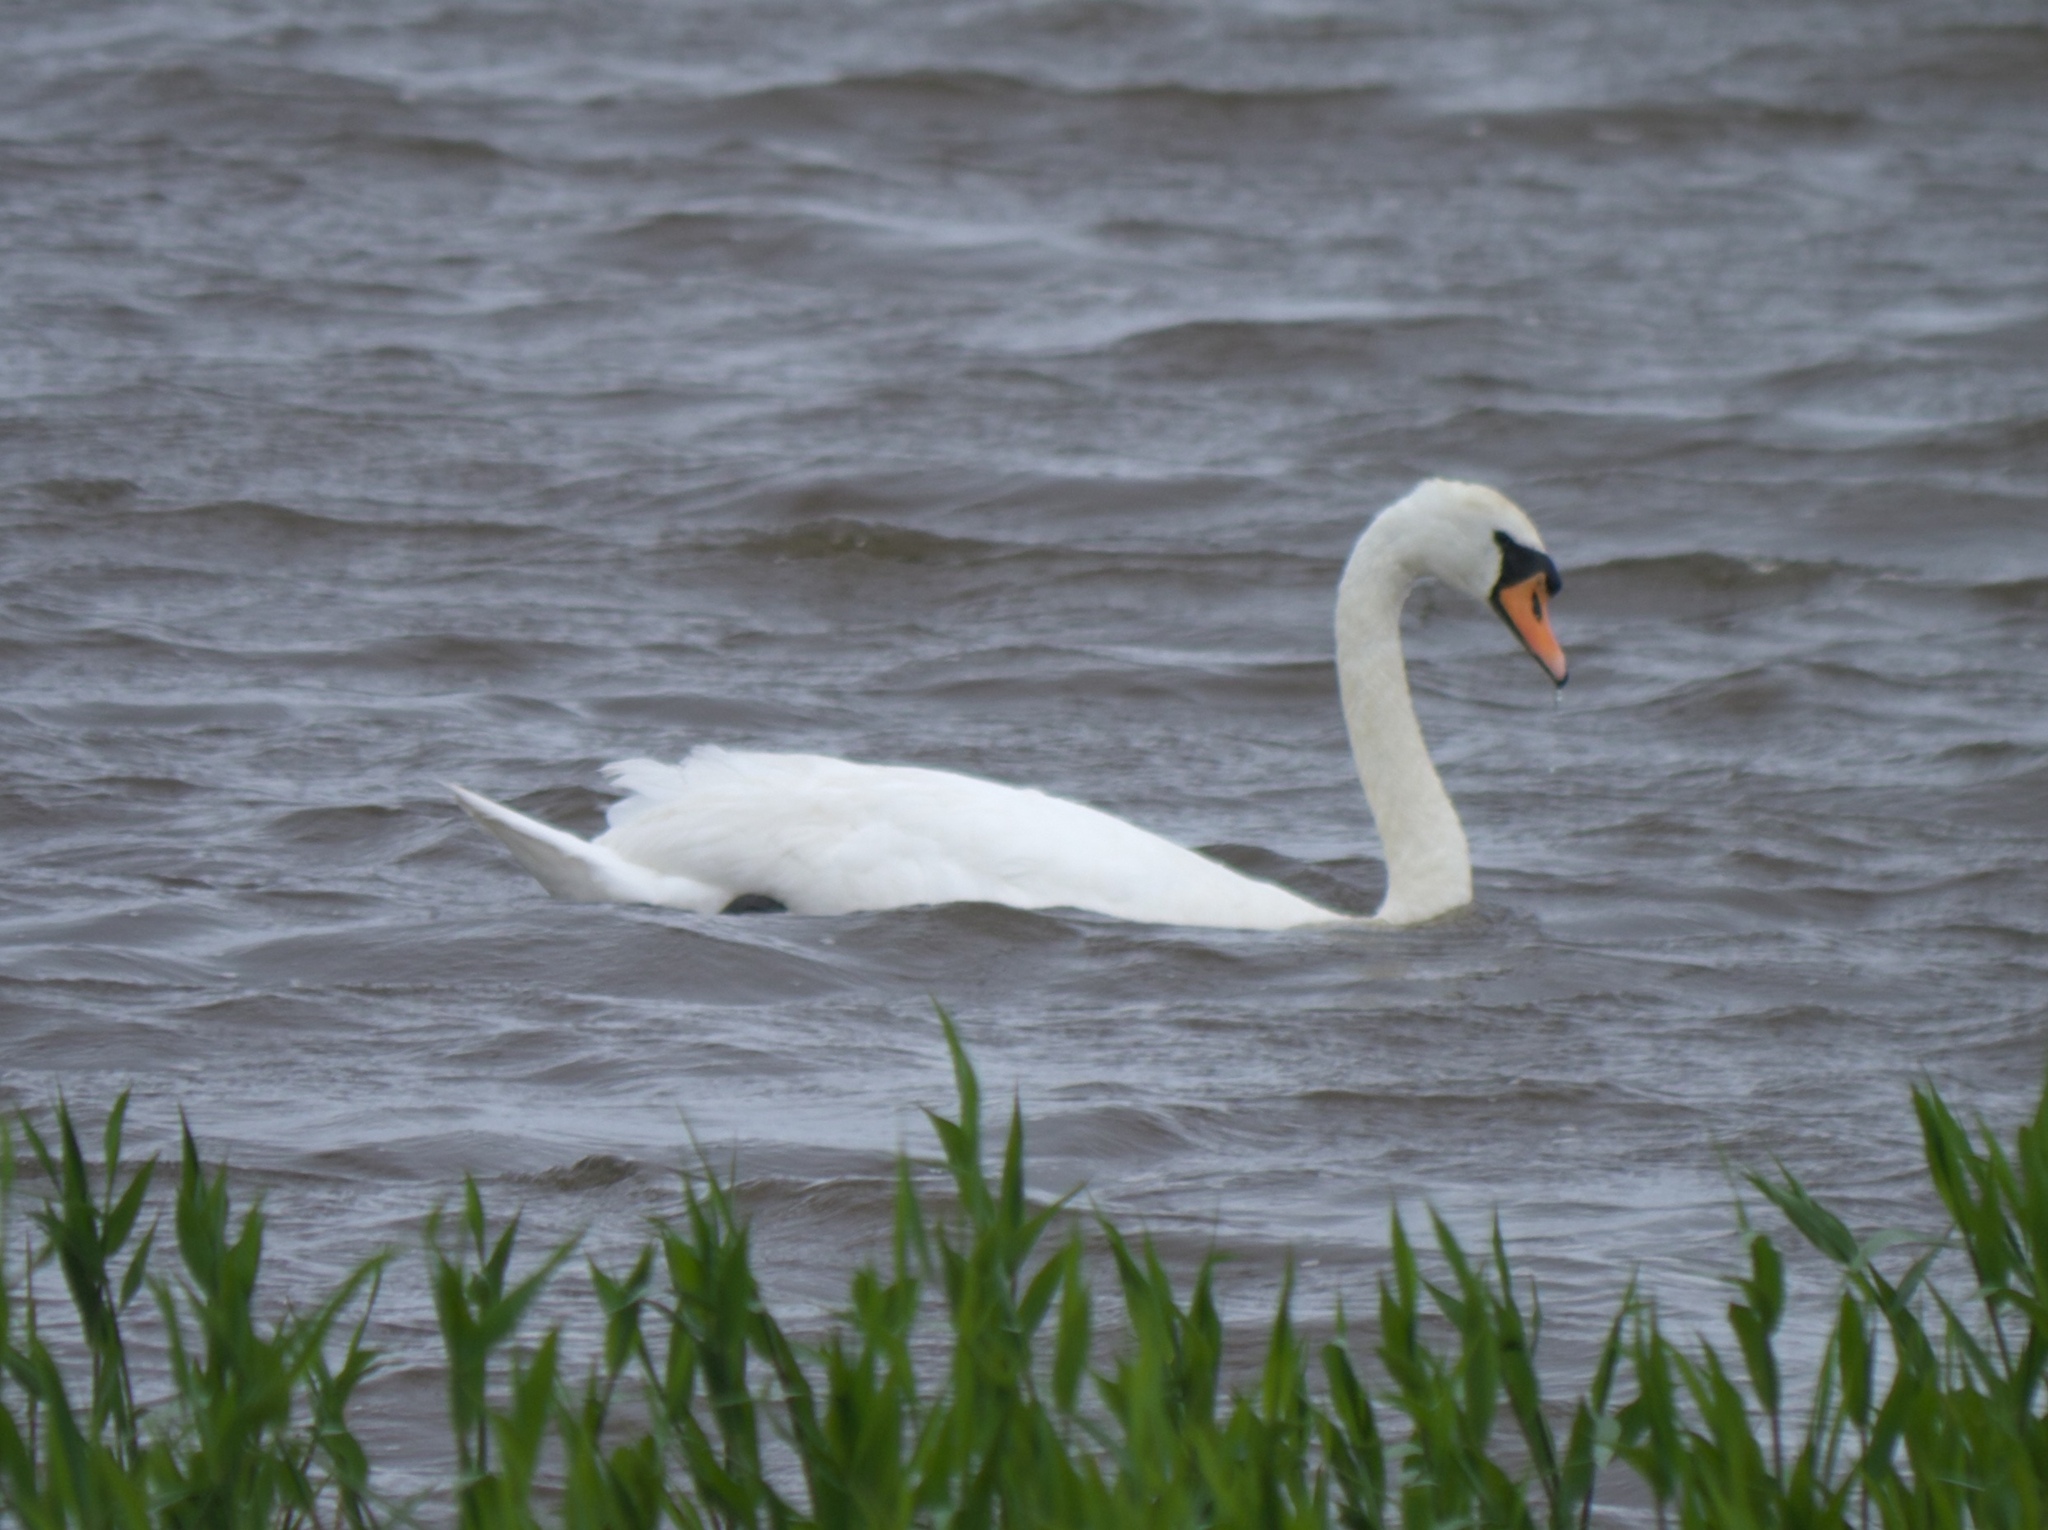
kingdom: Animalia
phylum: Chordata
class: Aves
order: Anseriformes
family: Anatidae
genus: Cygnus
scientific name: Cygnus olor
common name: Mute swan
